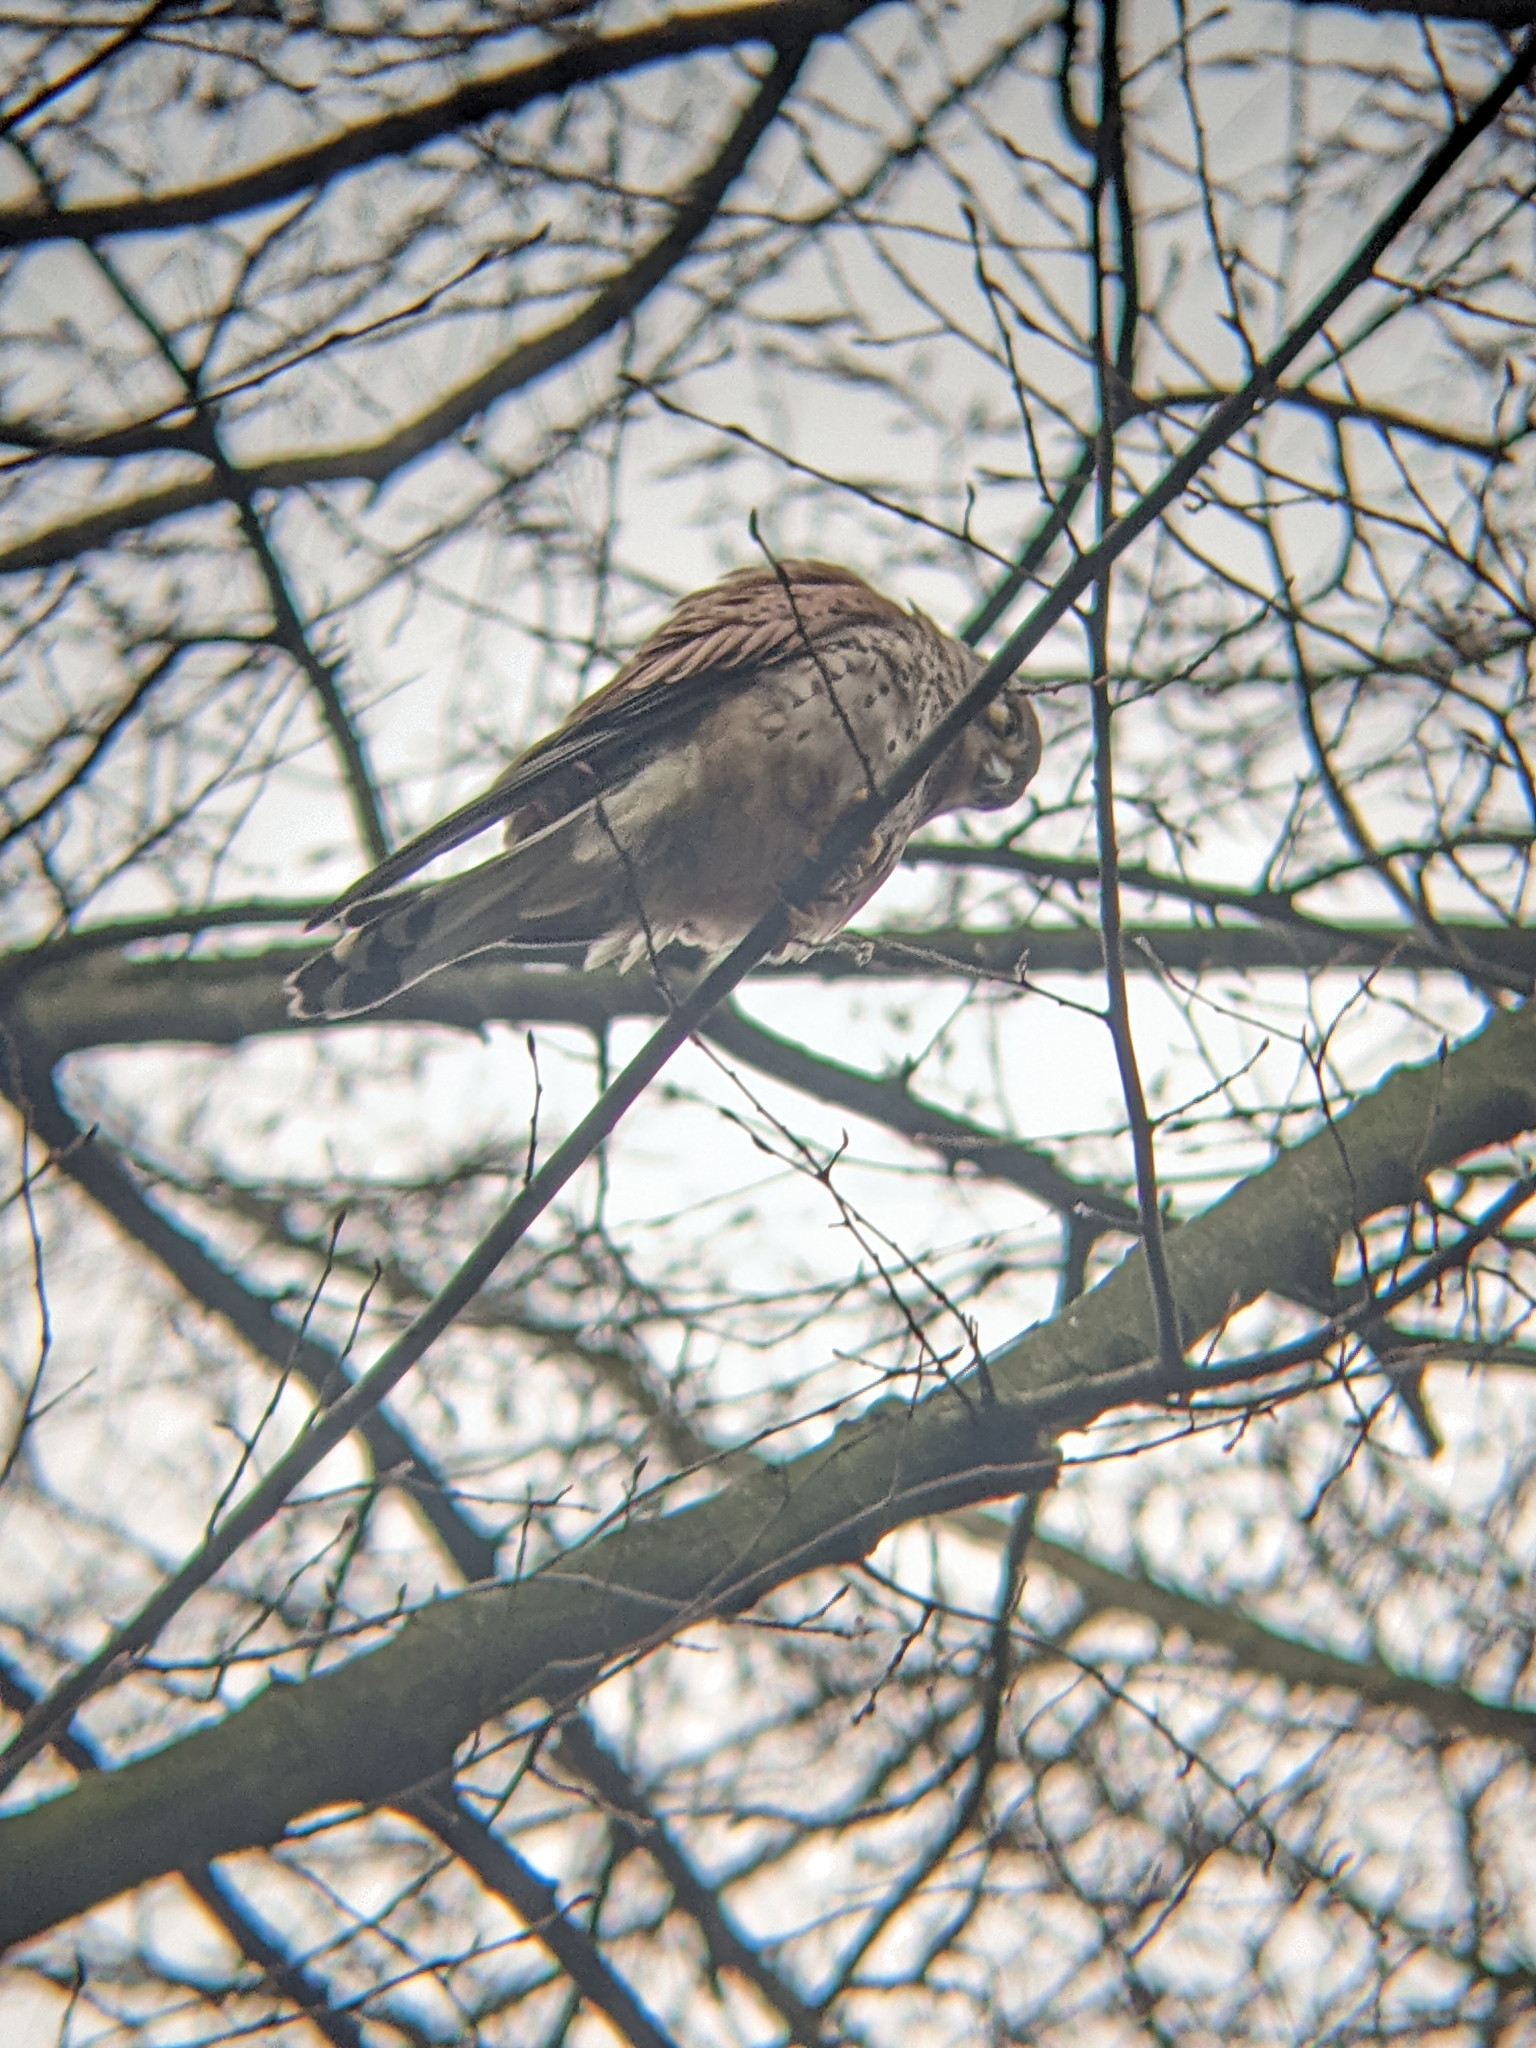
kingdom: Animalia
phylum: Chordata
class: Aves
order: Falconiformes
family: Falconidae
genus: Falco
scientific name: Falco tinnunculus
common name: Common kestrel
